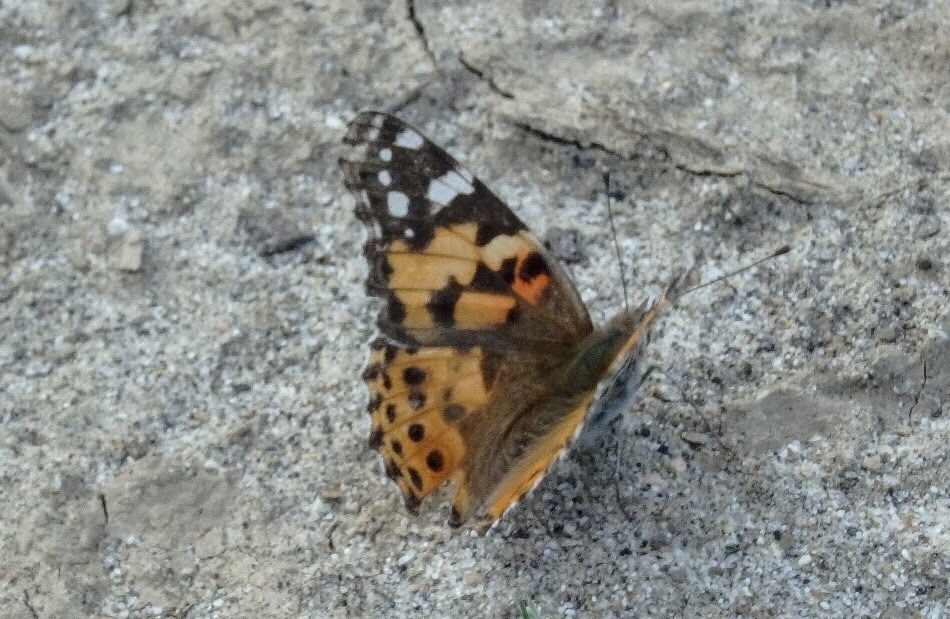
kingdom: Animalia
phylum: Arthropoda
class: Insecta
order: Lepidoptera
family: Nymphalidae
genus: Vanessa
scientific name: Vanessa cardui
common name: Painted lady
